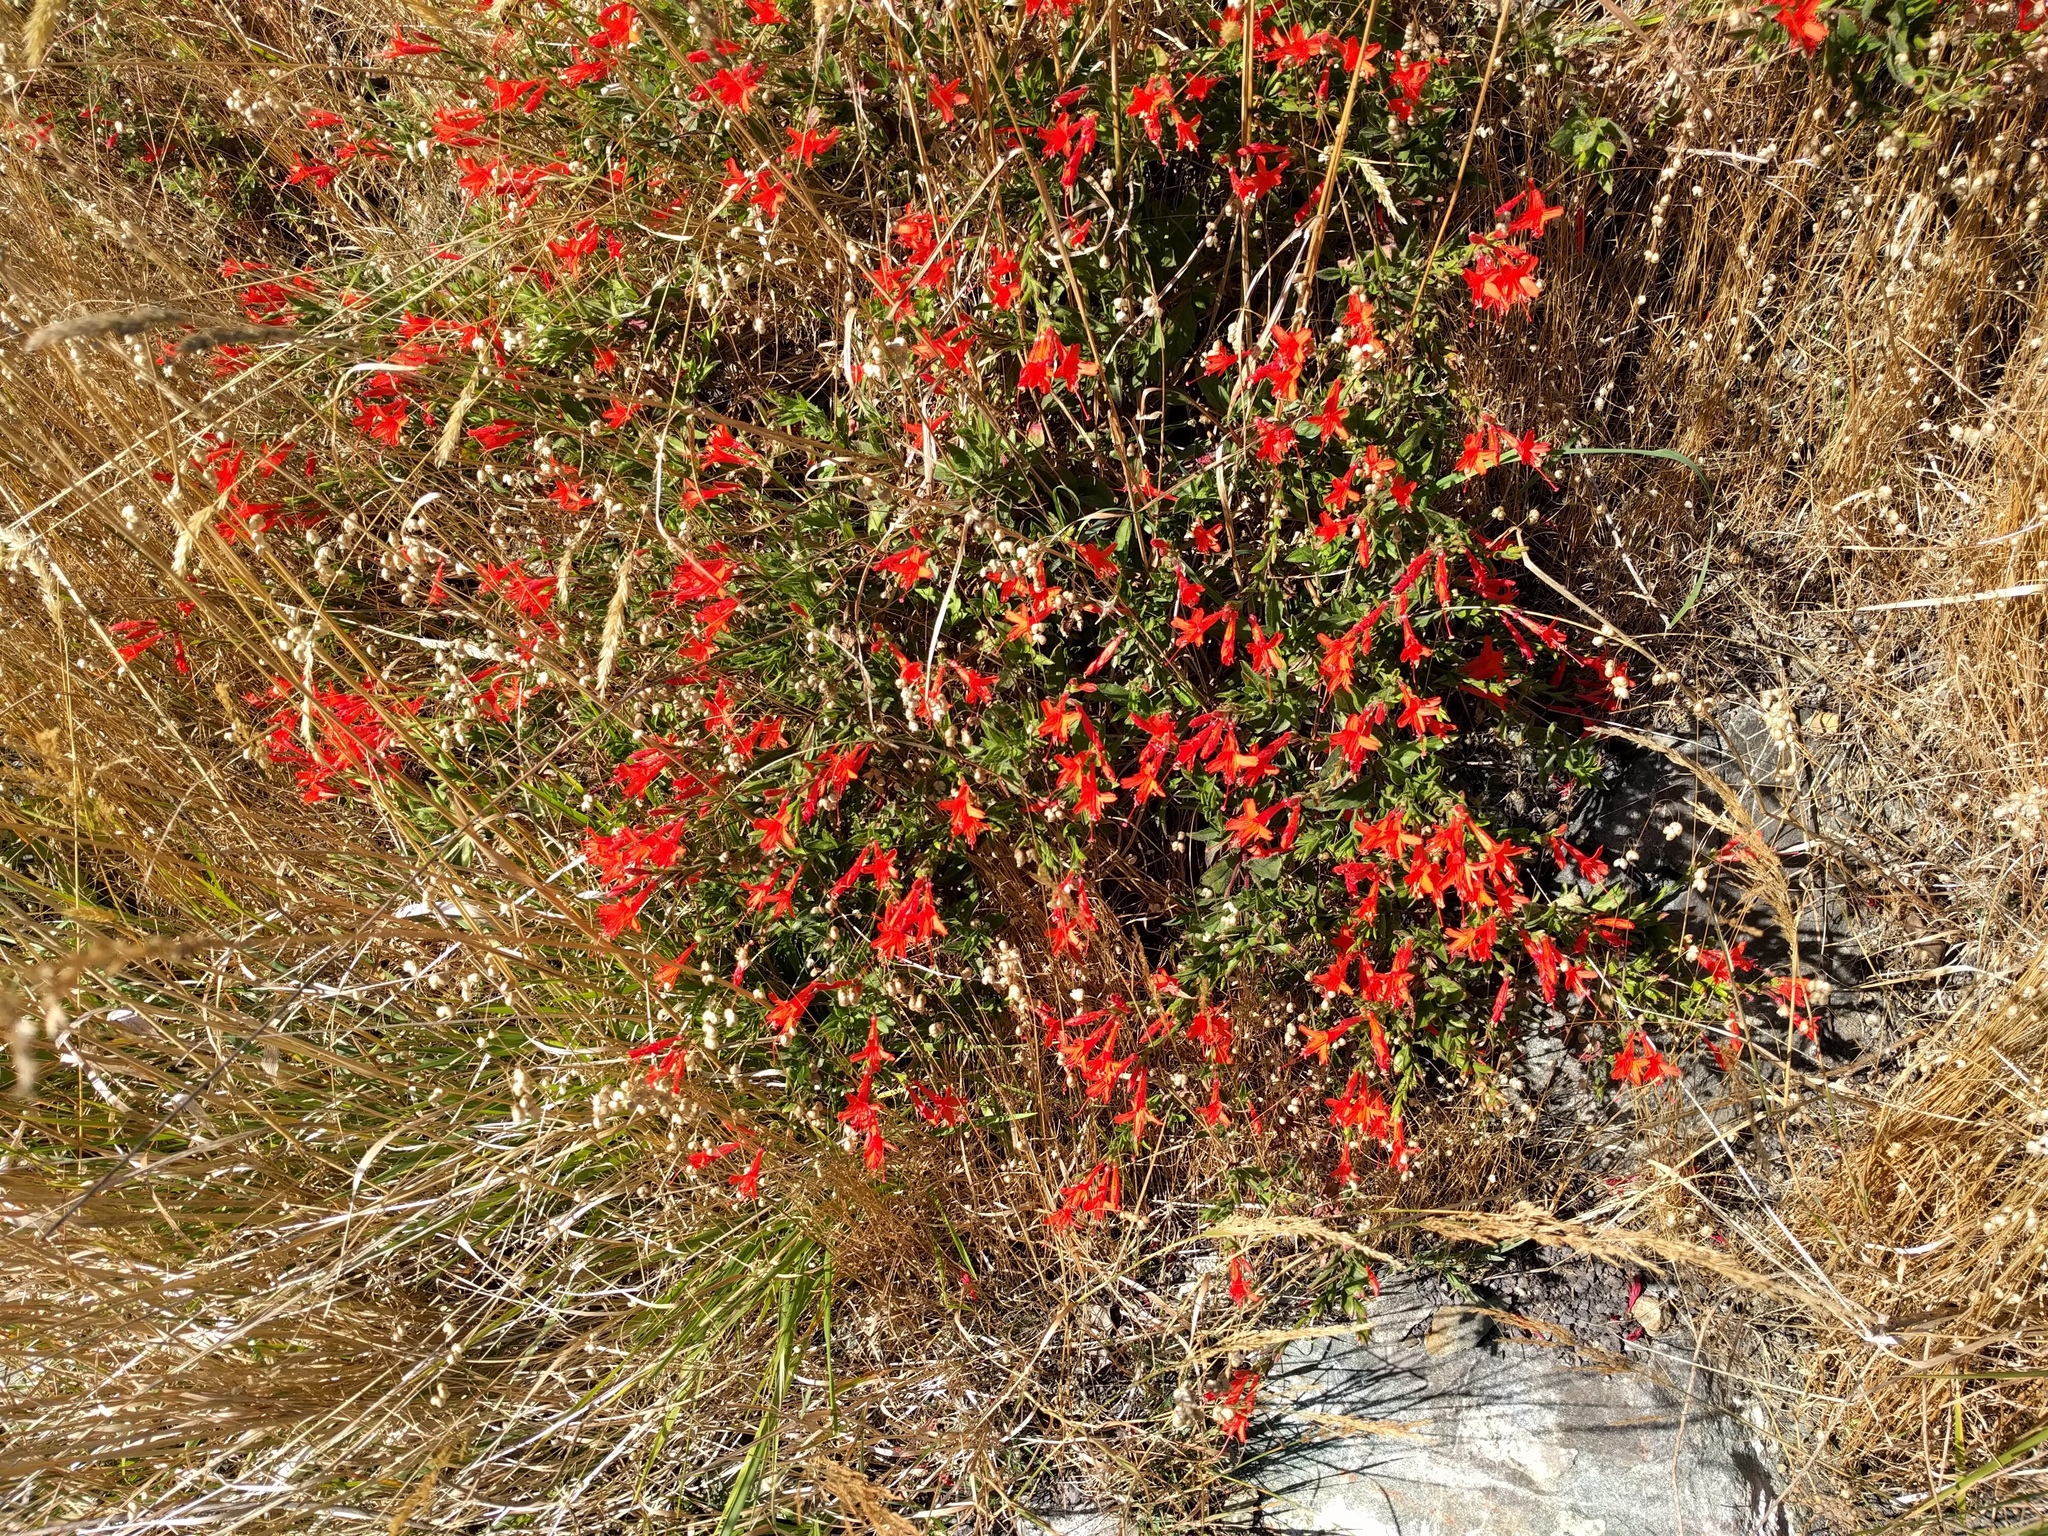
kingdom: Plantae
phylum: Tracheophyta
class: Magnoliopsida
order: Myrtales
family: Onagraceae
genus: Epilobium
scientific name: Epilobium canum
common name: California-fuchsia
